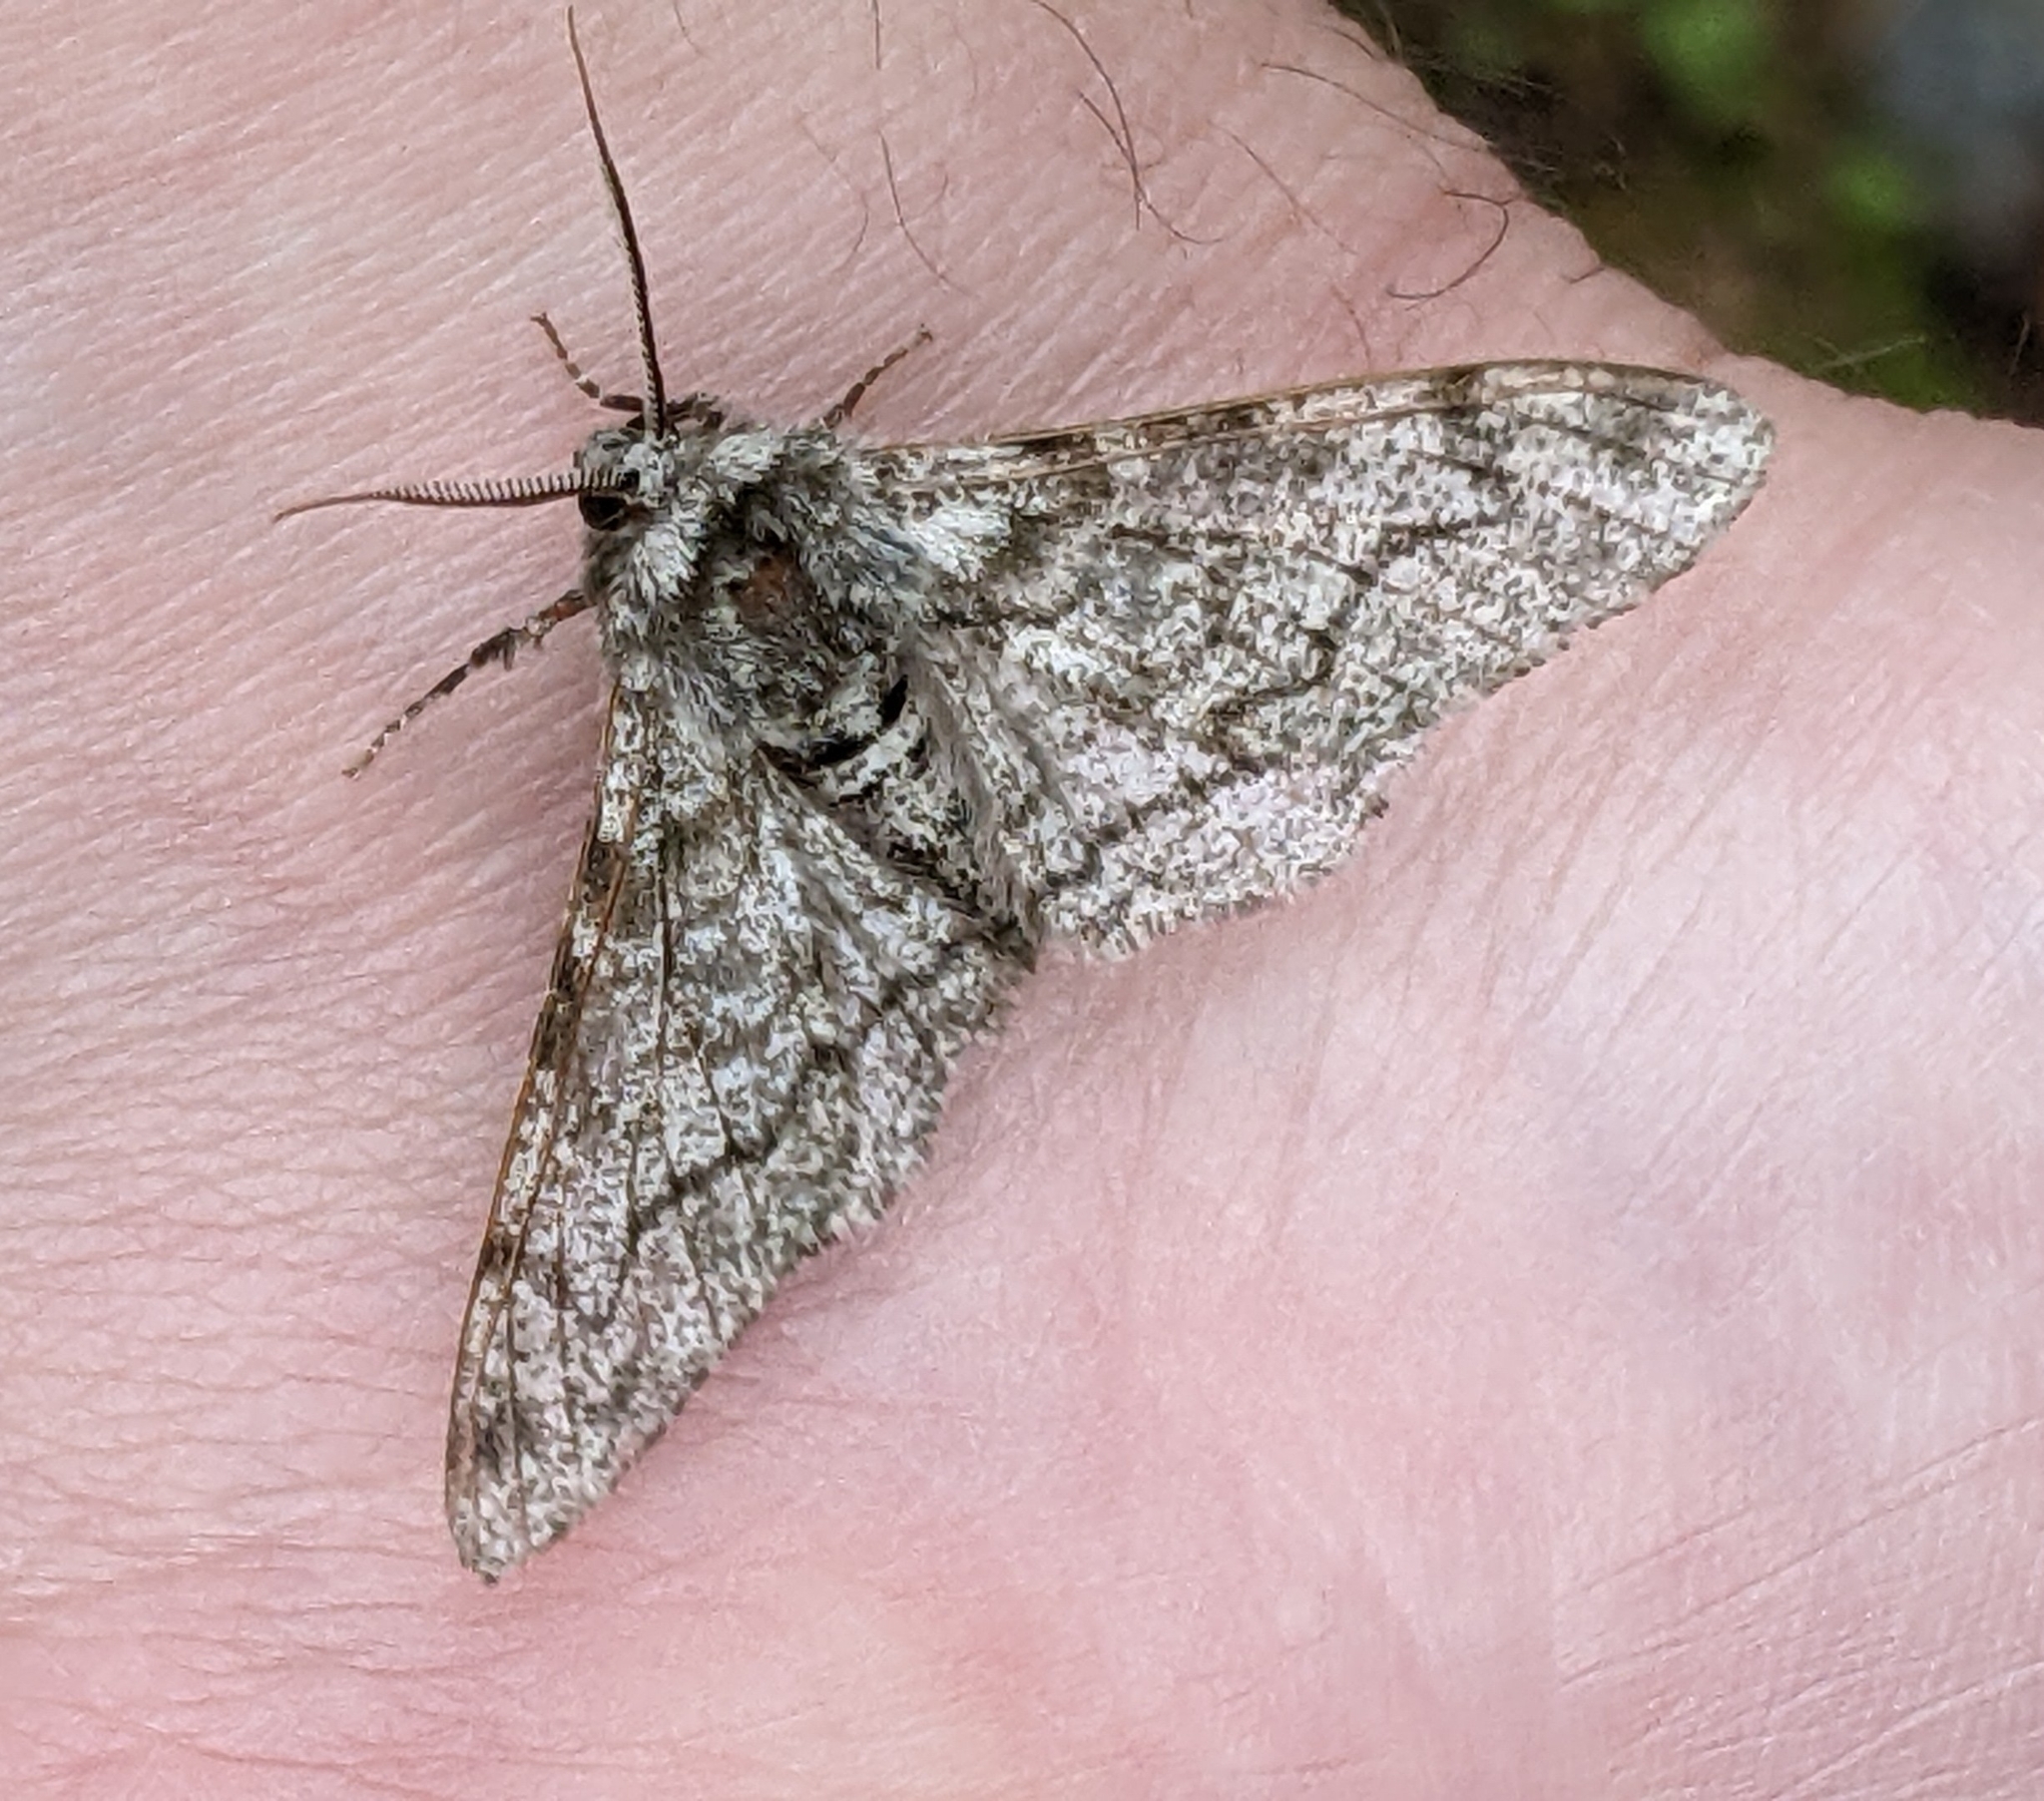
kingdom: Animalia
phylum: Arthropoda
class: Insecta
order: Lepidoptera
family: Geometridae
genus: Biston
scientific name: Biston betularia
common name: Peppered moth
